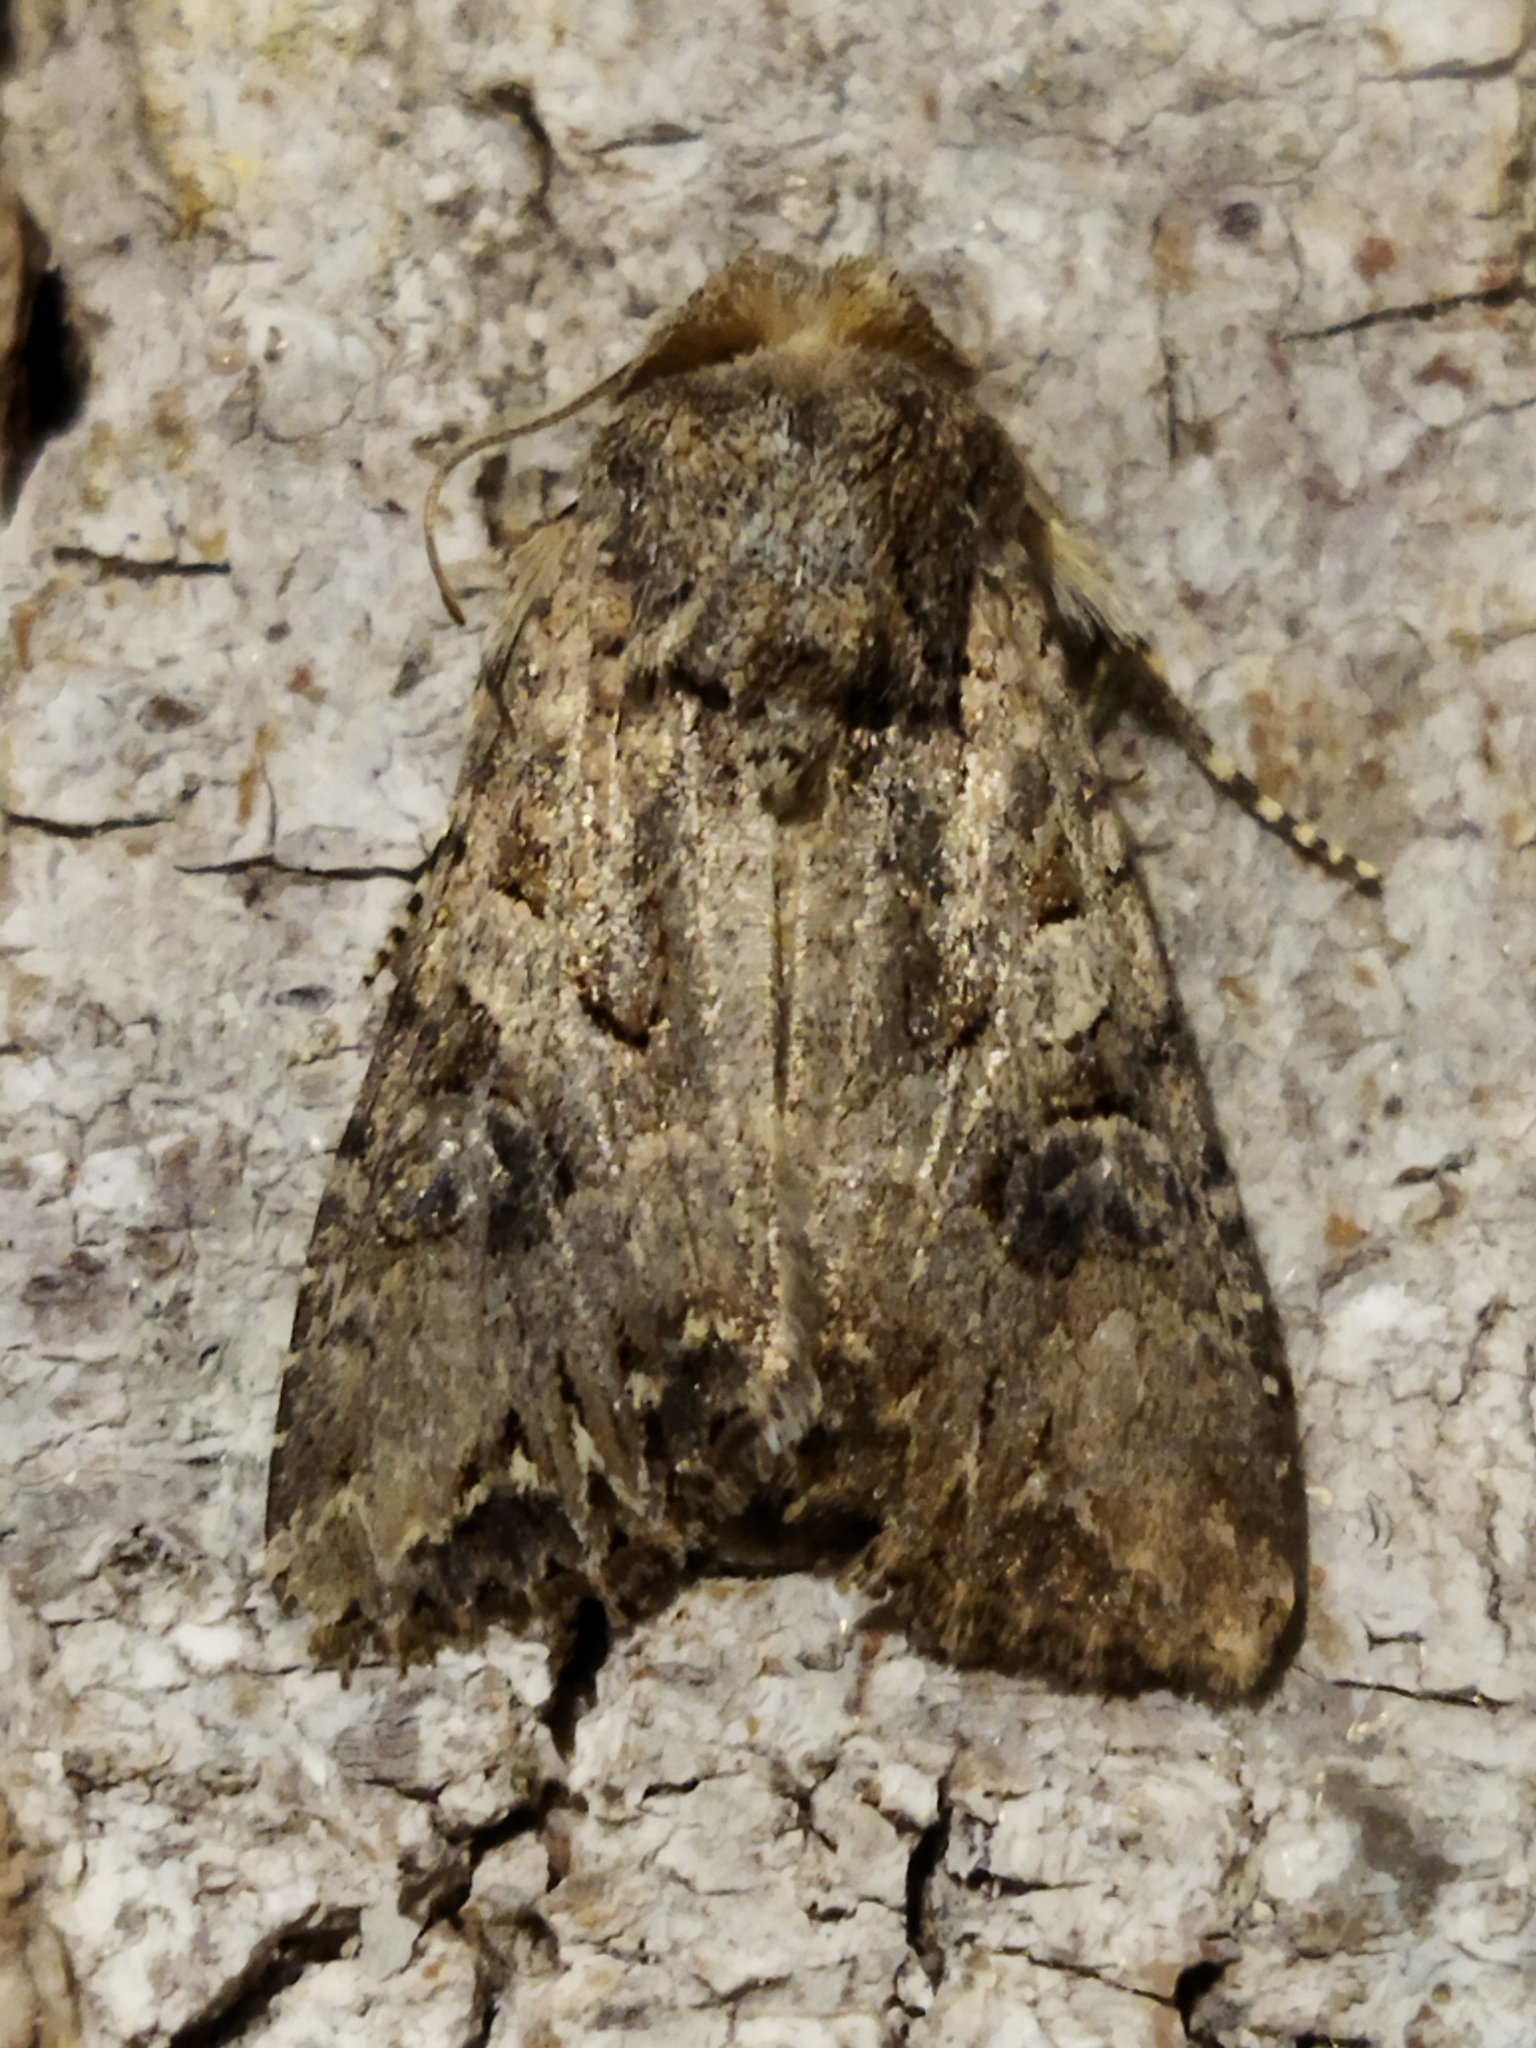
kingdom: Animalia
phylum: Arthropoda
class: Insecta
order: Lepidoptera
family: Noctuidae
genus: Anarta
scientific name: Anarta trifolii
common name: Clover cutworm moth
